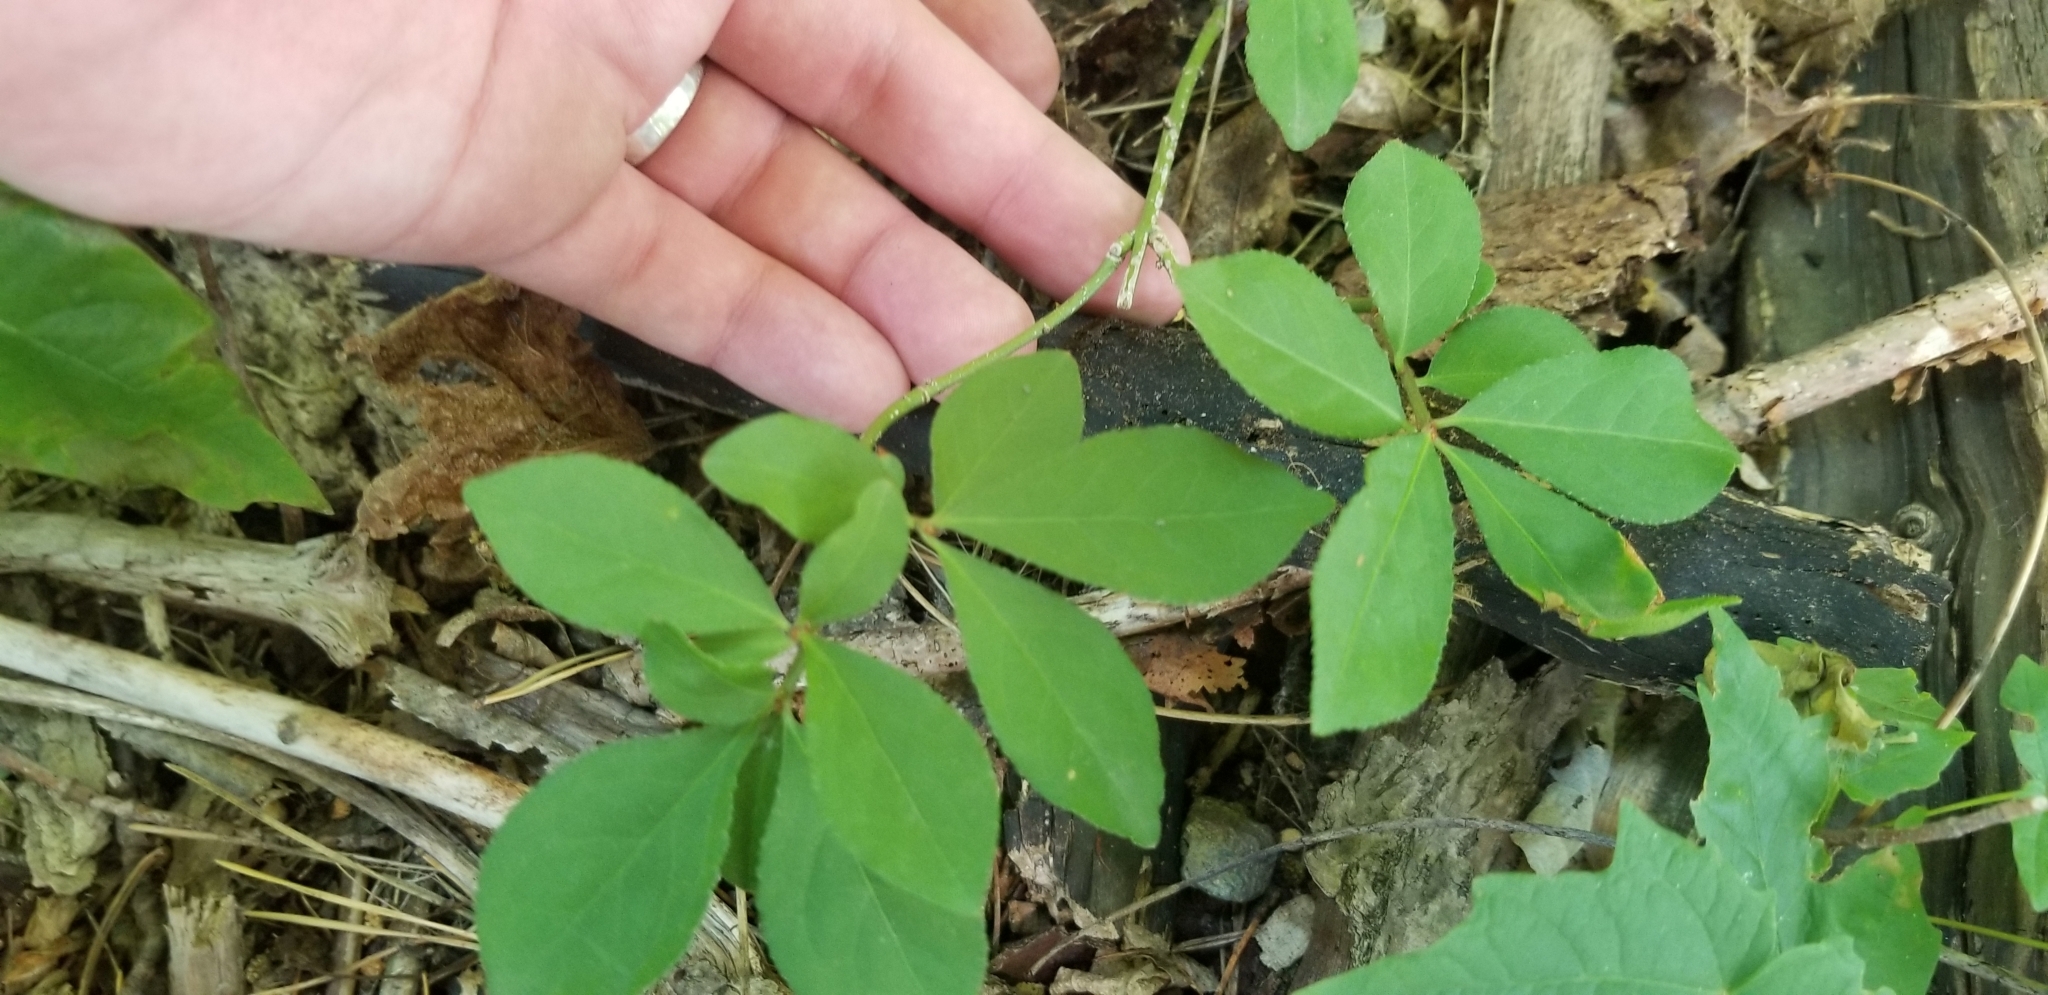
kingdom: Plantae
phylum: Tracheophyta
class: Magnoliopsida
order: Celastrales
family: Celastraceae
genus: Euonymus
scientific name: Euonymus obovatus
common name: Running strawberry-bush
